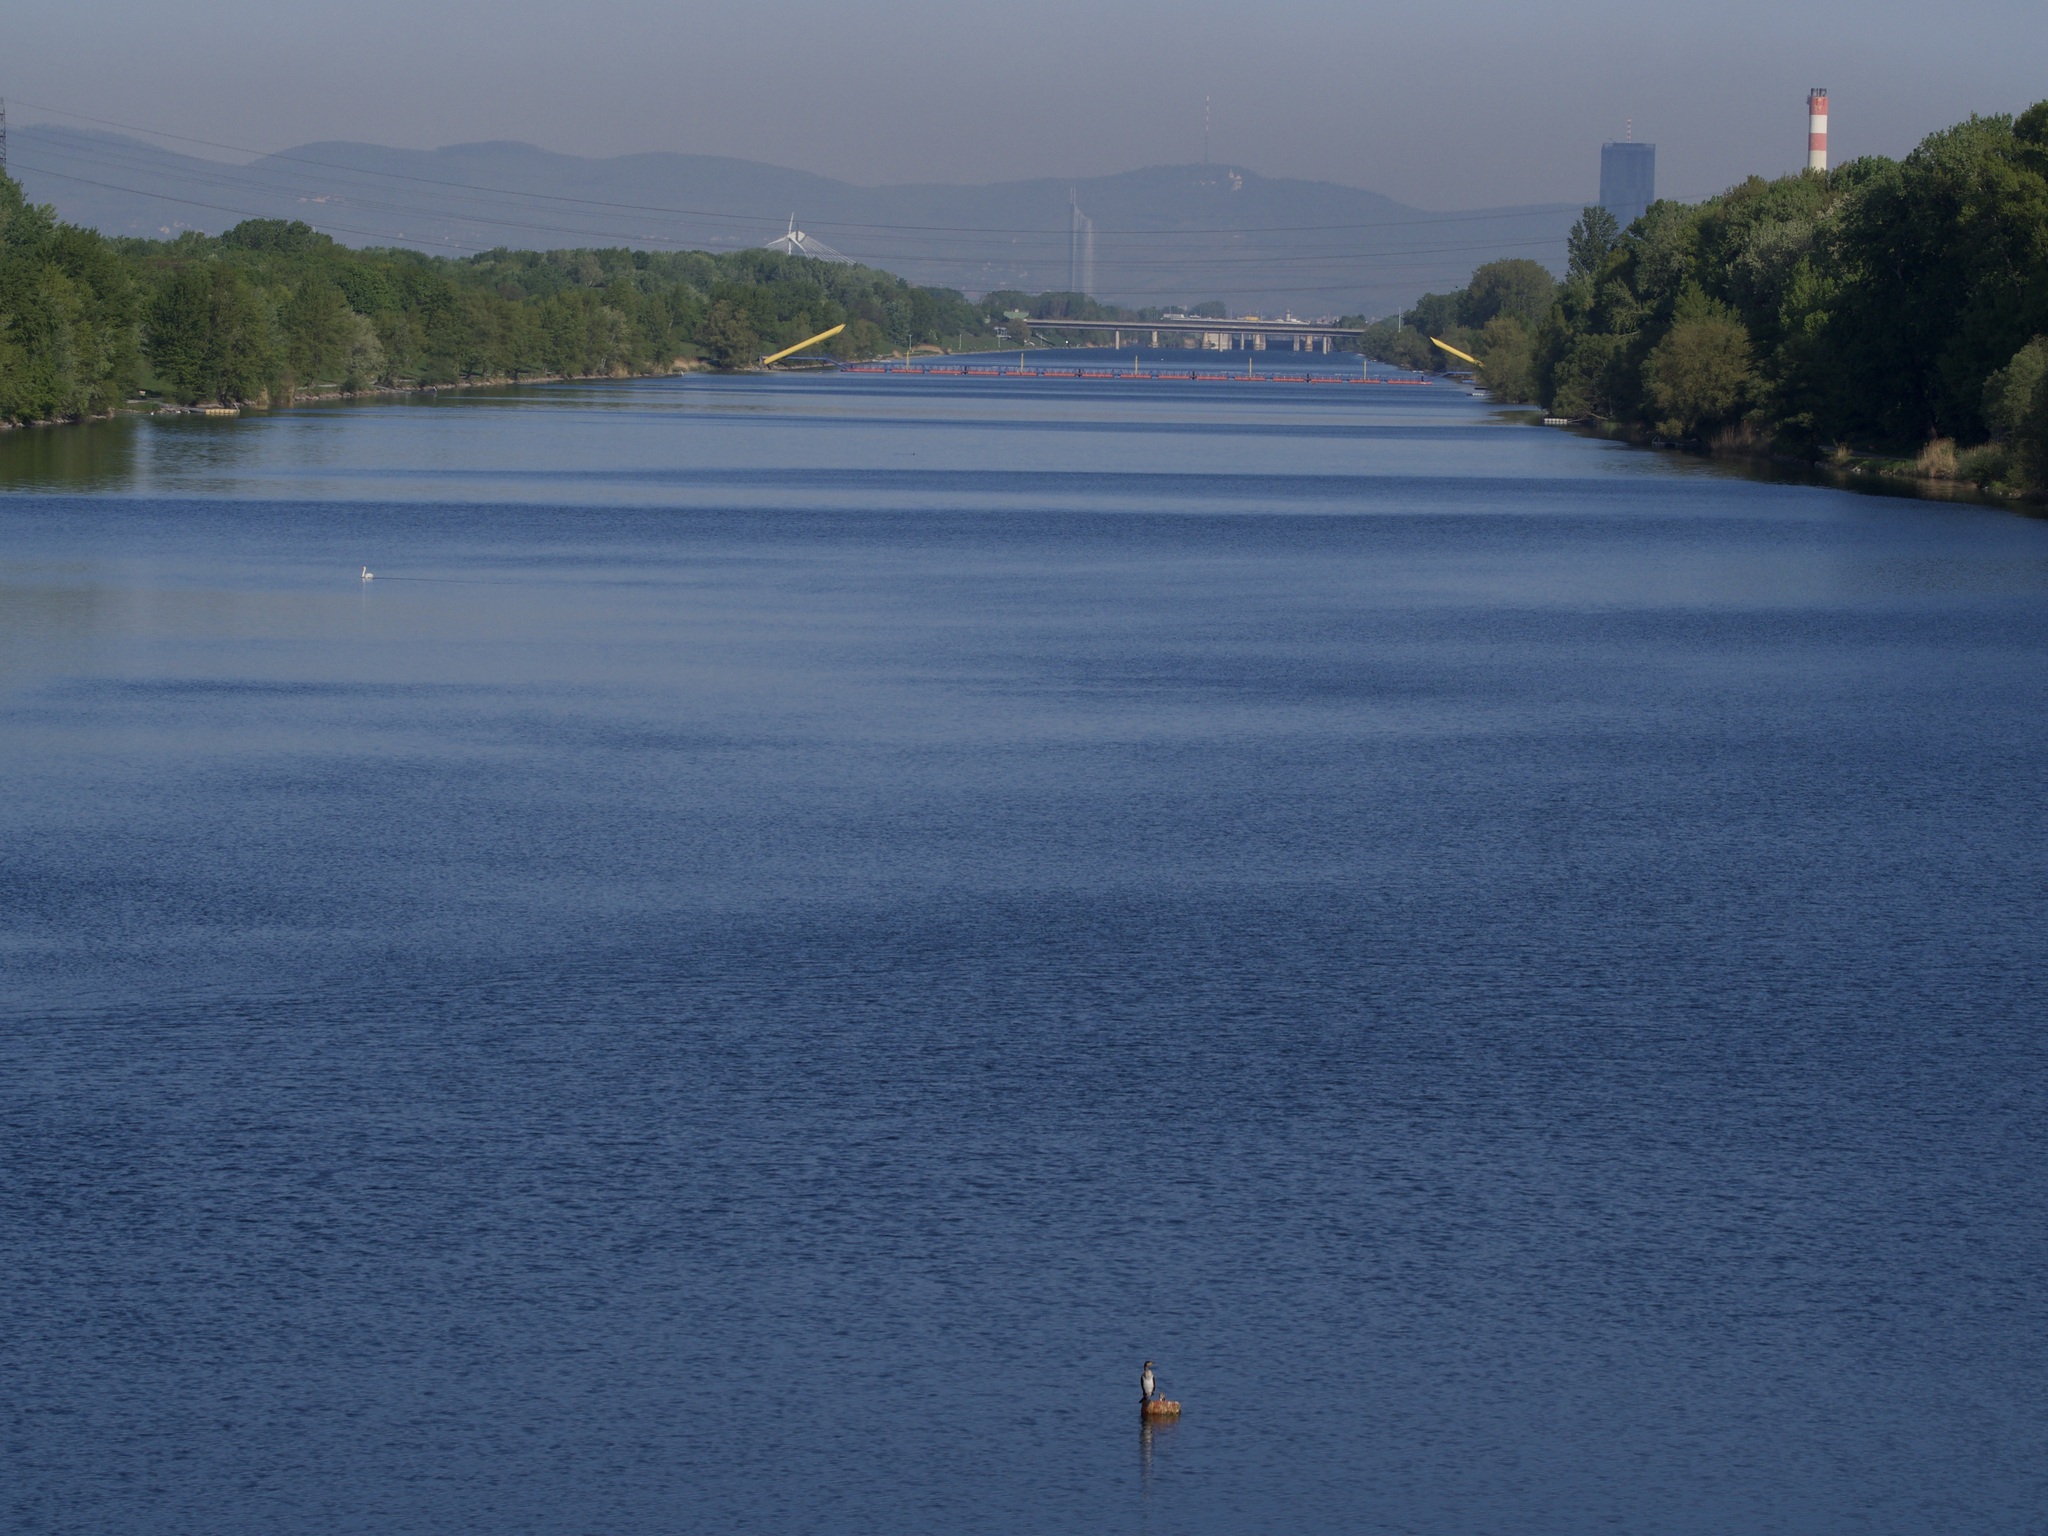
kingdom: Animalia
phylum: Chordata
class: Aves
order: Suliformes
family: Phalacrocoracidae
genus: Phalacrocorax
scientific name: Phalacrocorax carbo
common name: Great cormorant
